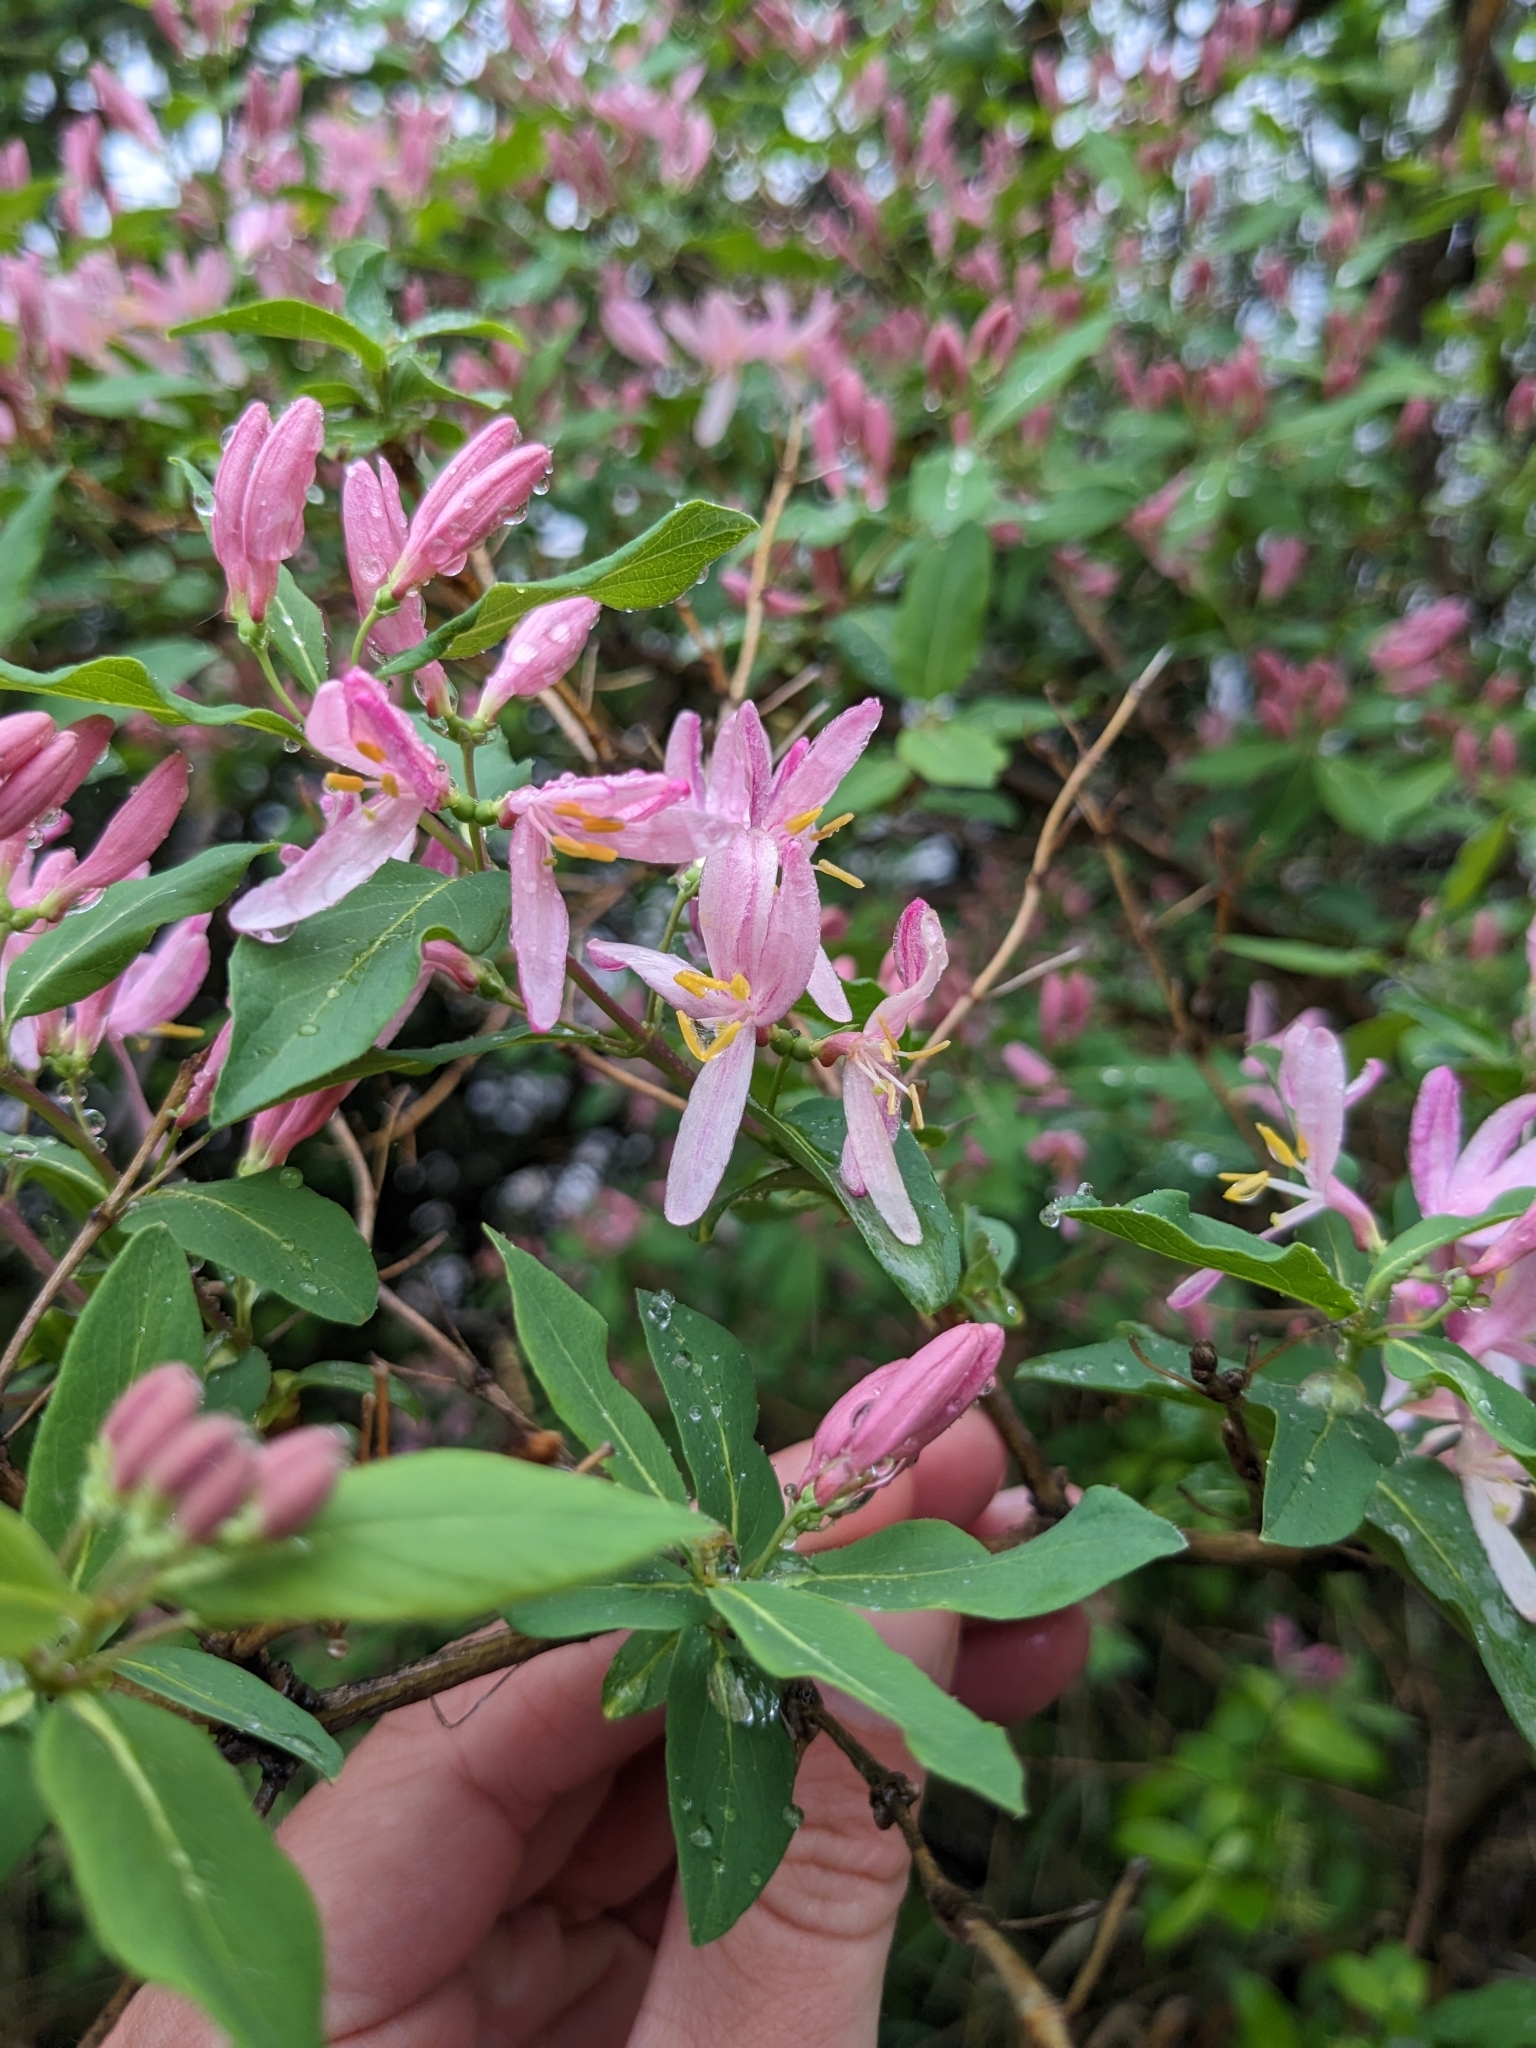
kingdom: Plantae
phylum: Tracheophyta
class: Magnoliopsida
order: Dipsacales
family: Caprifoliaceae
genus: Lonicera
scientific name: Lonicera tatarica
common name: Tatarian honeysuckle
